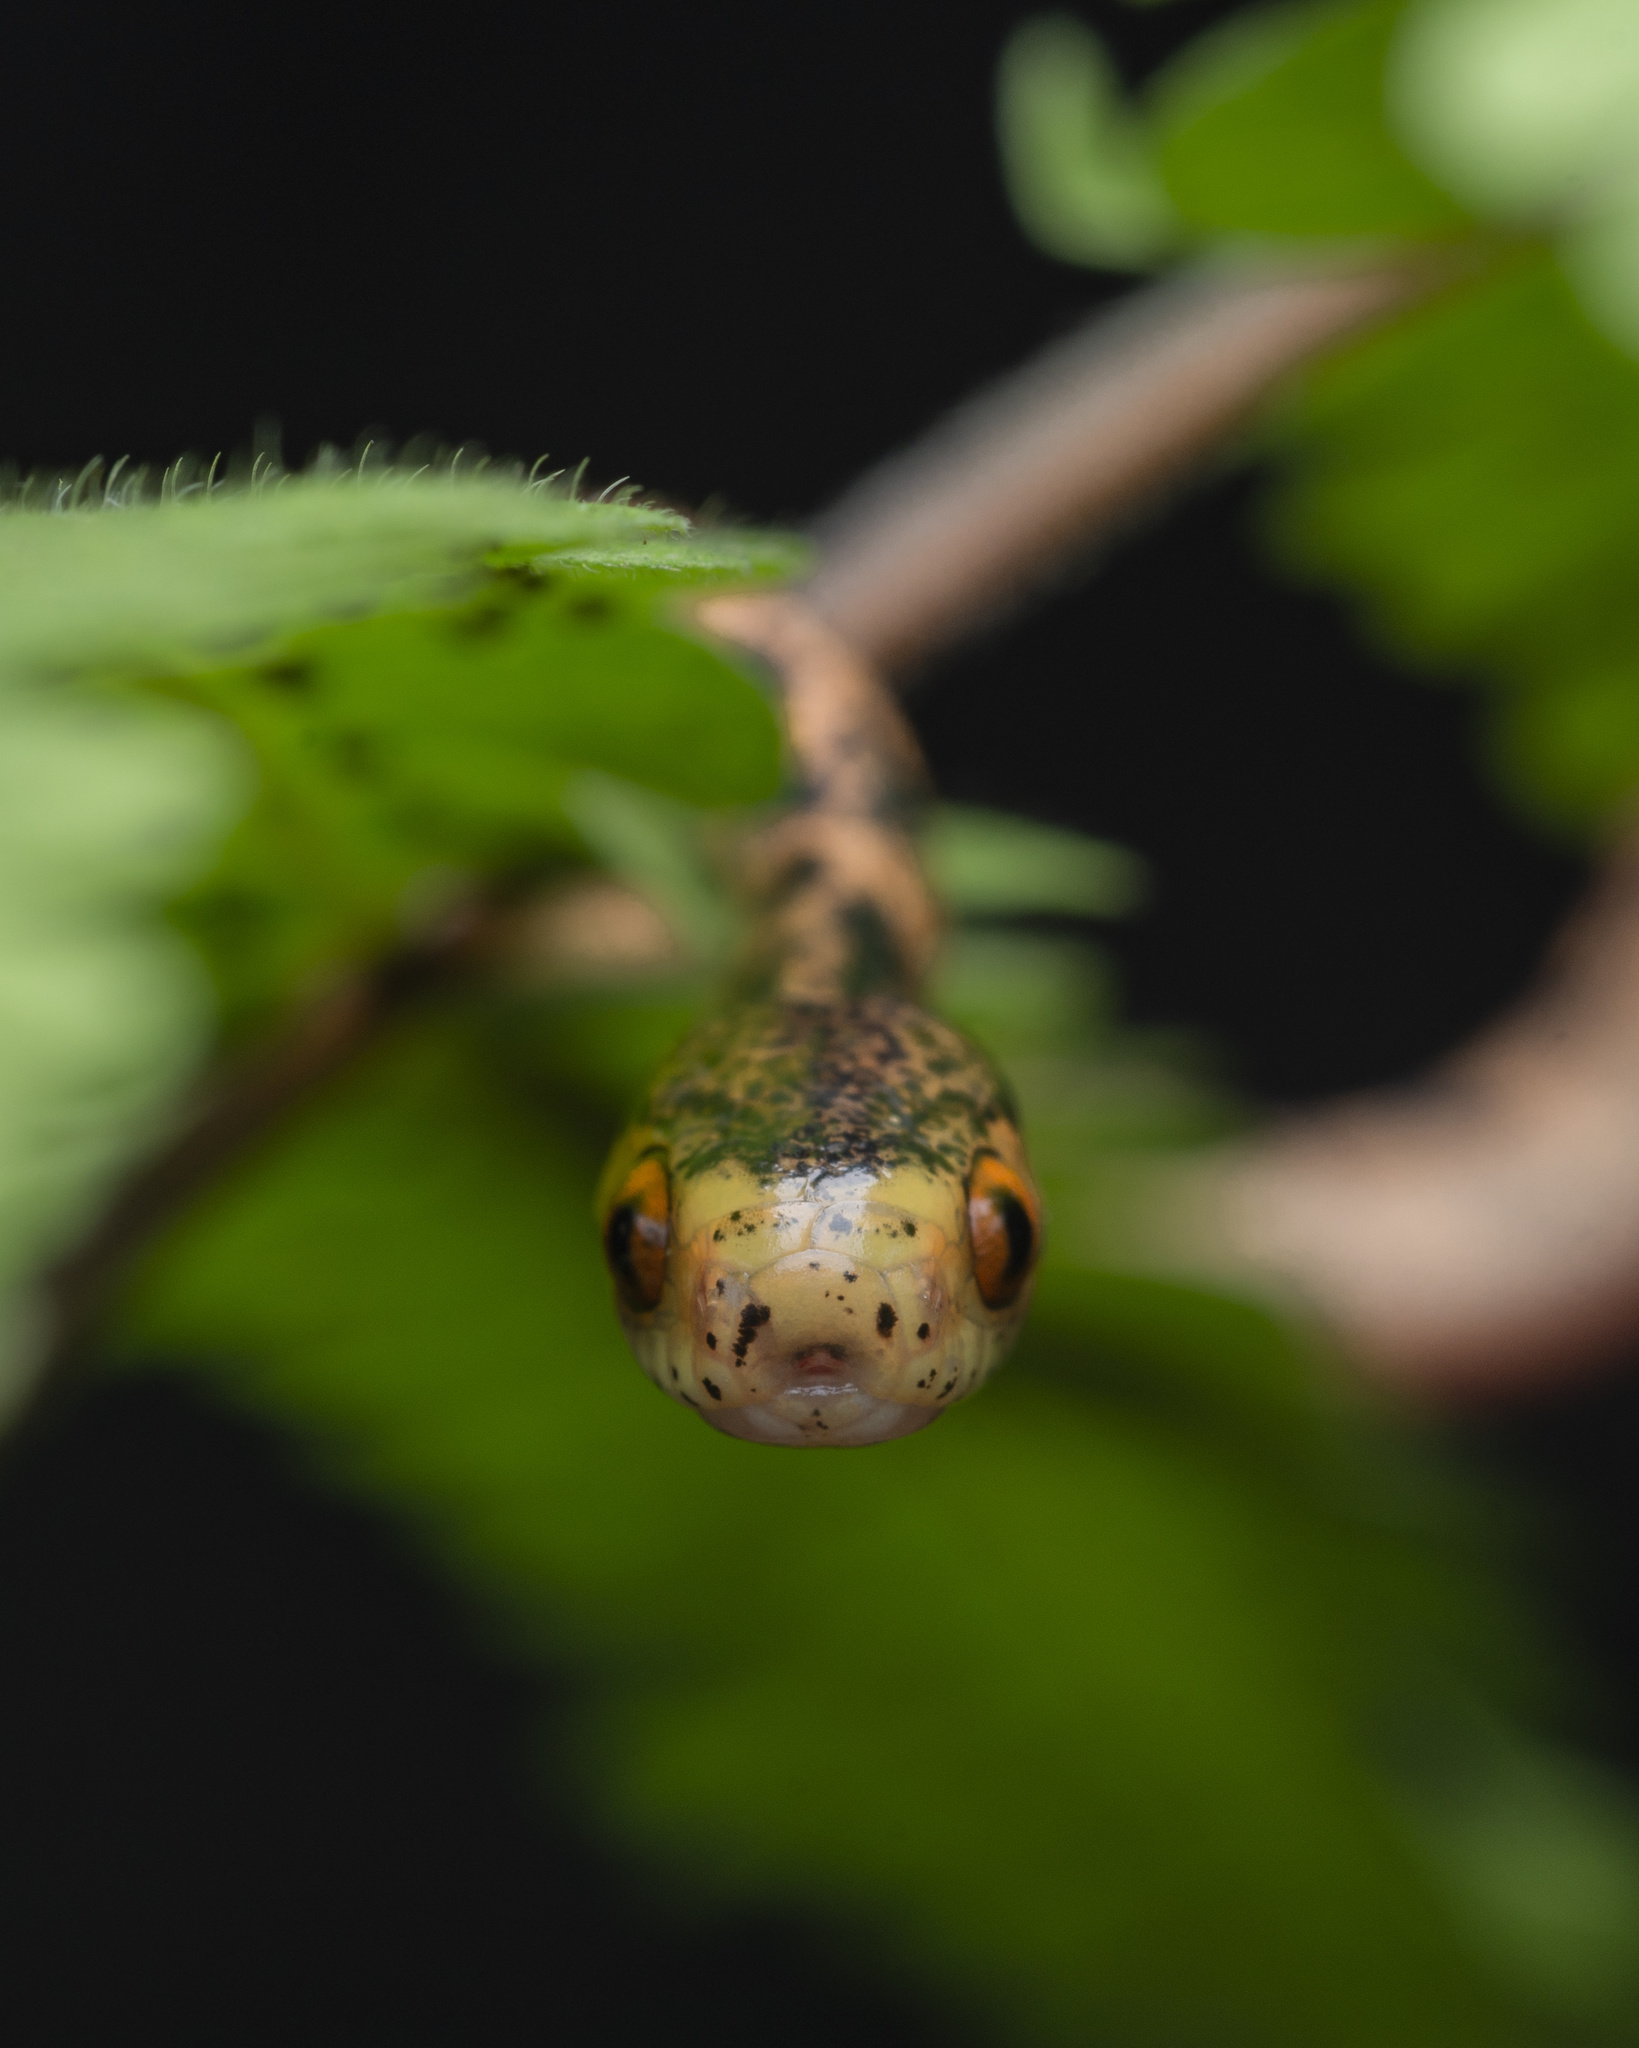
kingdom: Animalia
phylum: Chordata
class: Squamata
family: Pareidae
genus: Pareas
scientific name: Pareas chinensis
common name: Chinese slug snake
